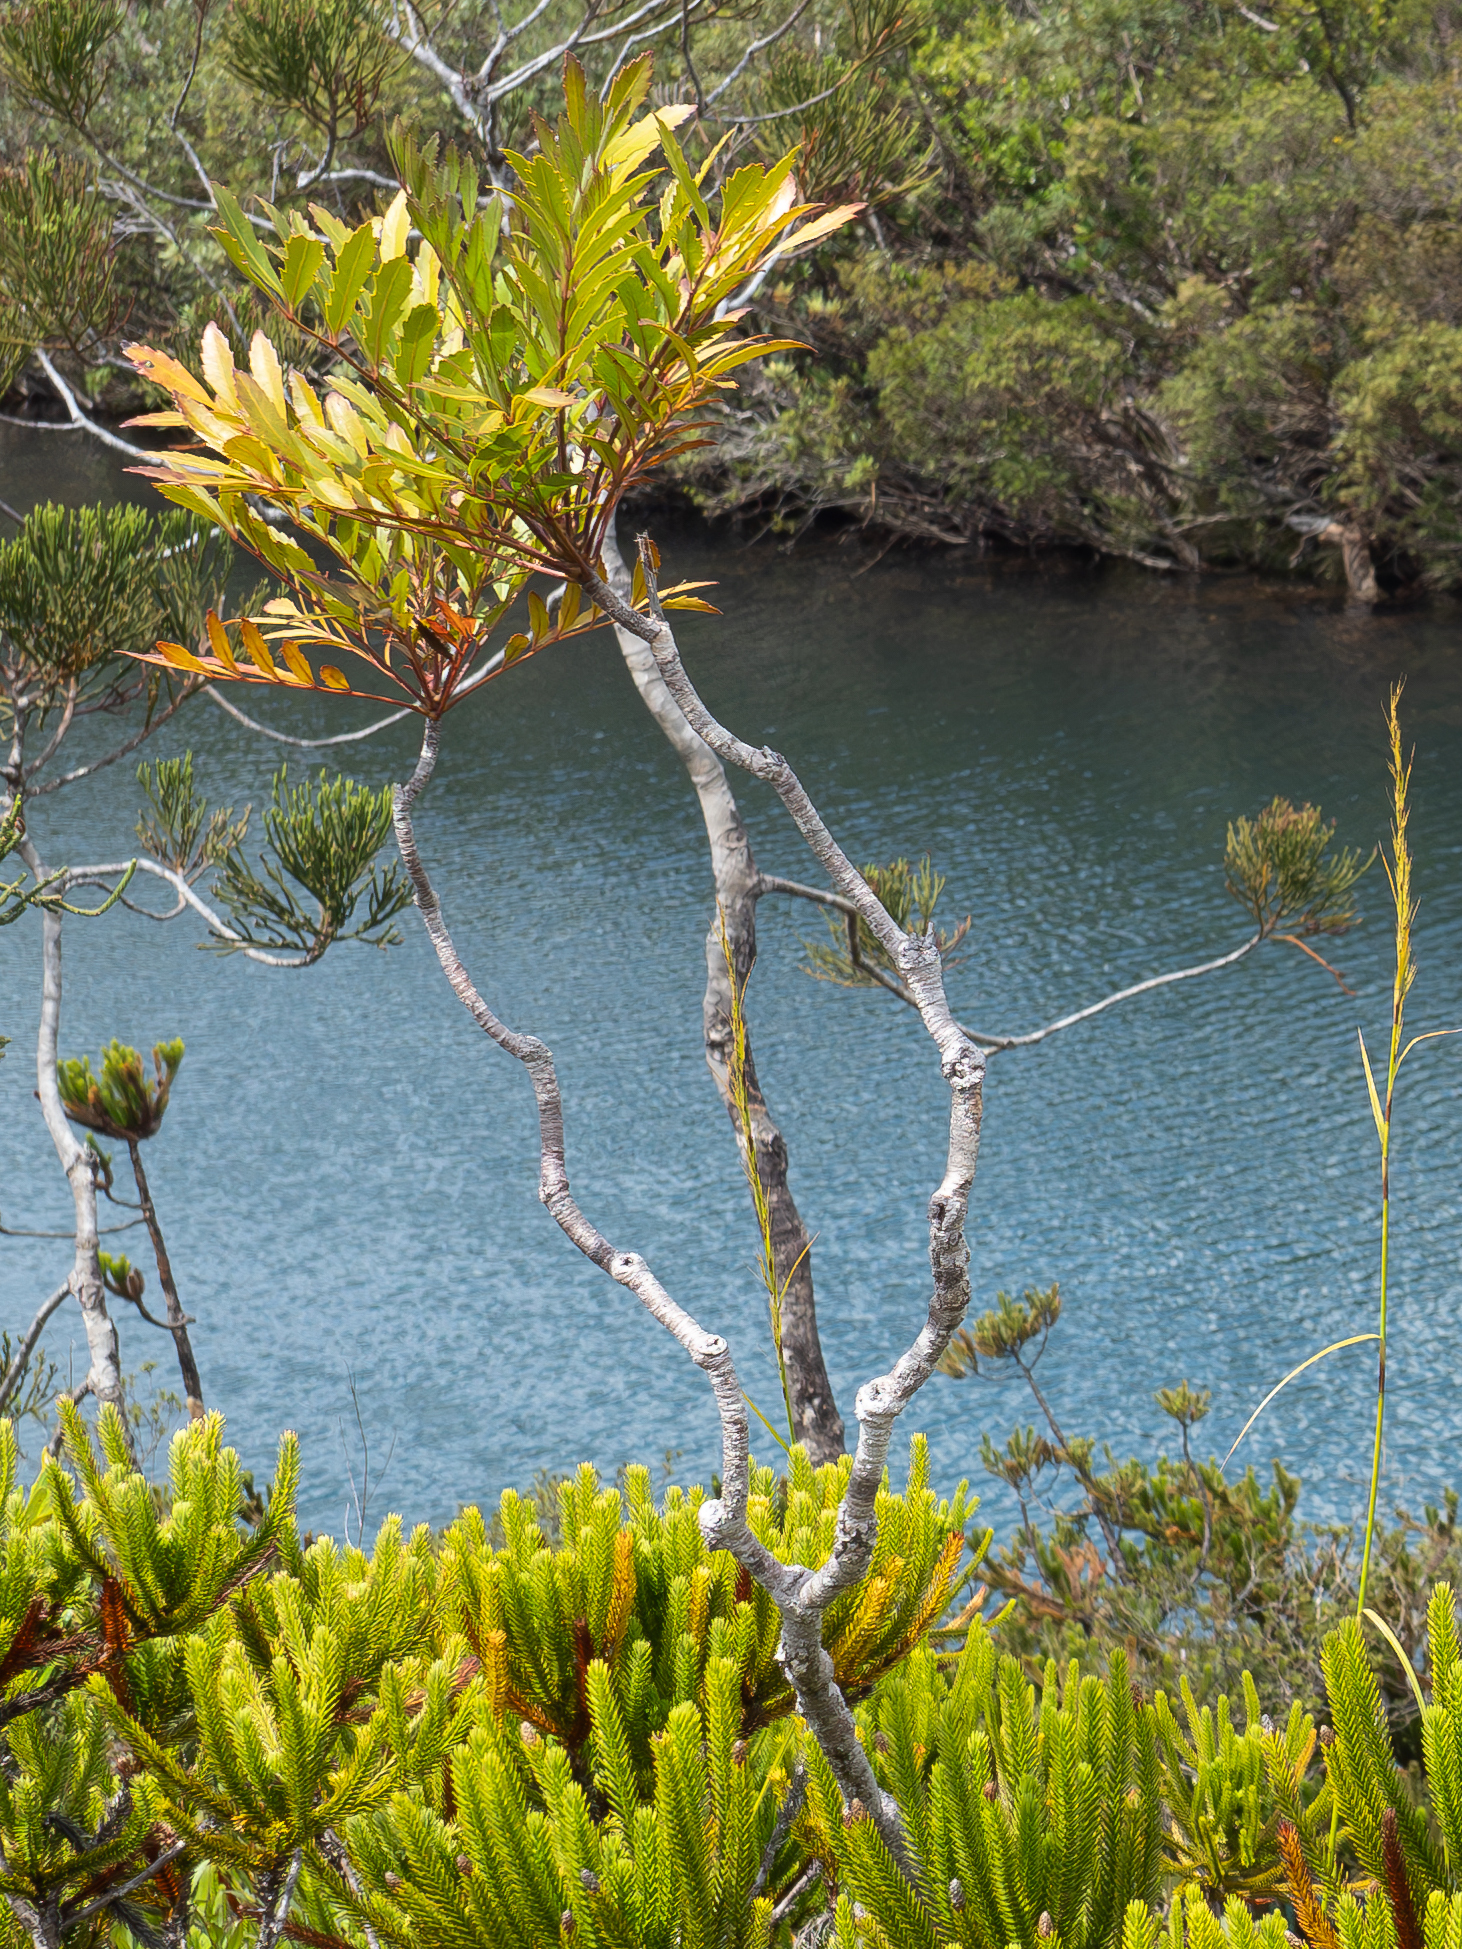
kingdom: Plantae
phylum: Tracheophyta
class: Magnoliopsida
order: Apiales
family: Myodocarpaceae
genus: Myodocarpus
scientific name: Myodocarpus fraxinifolius
